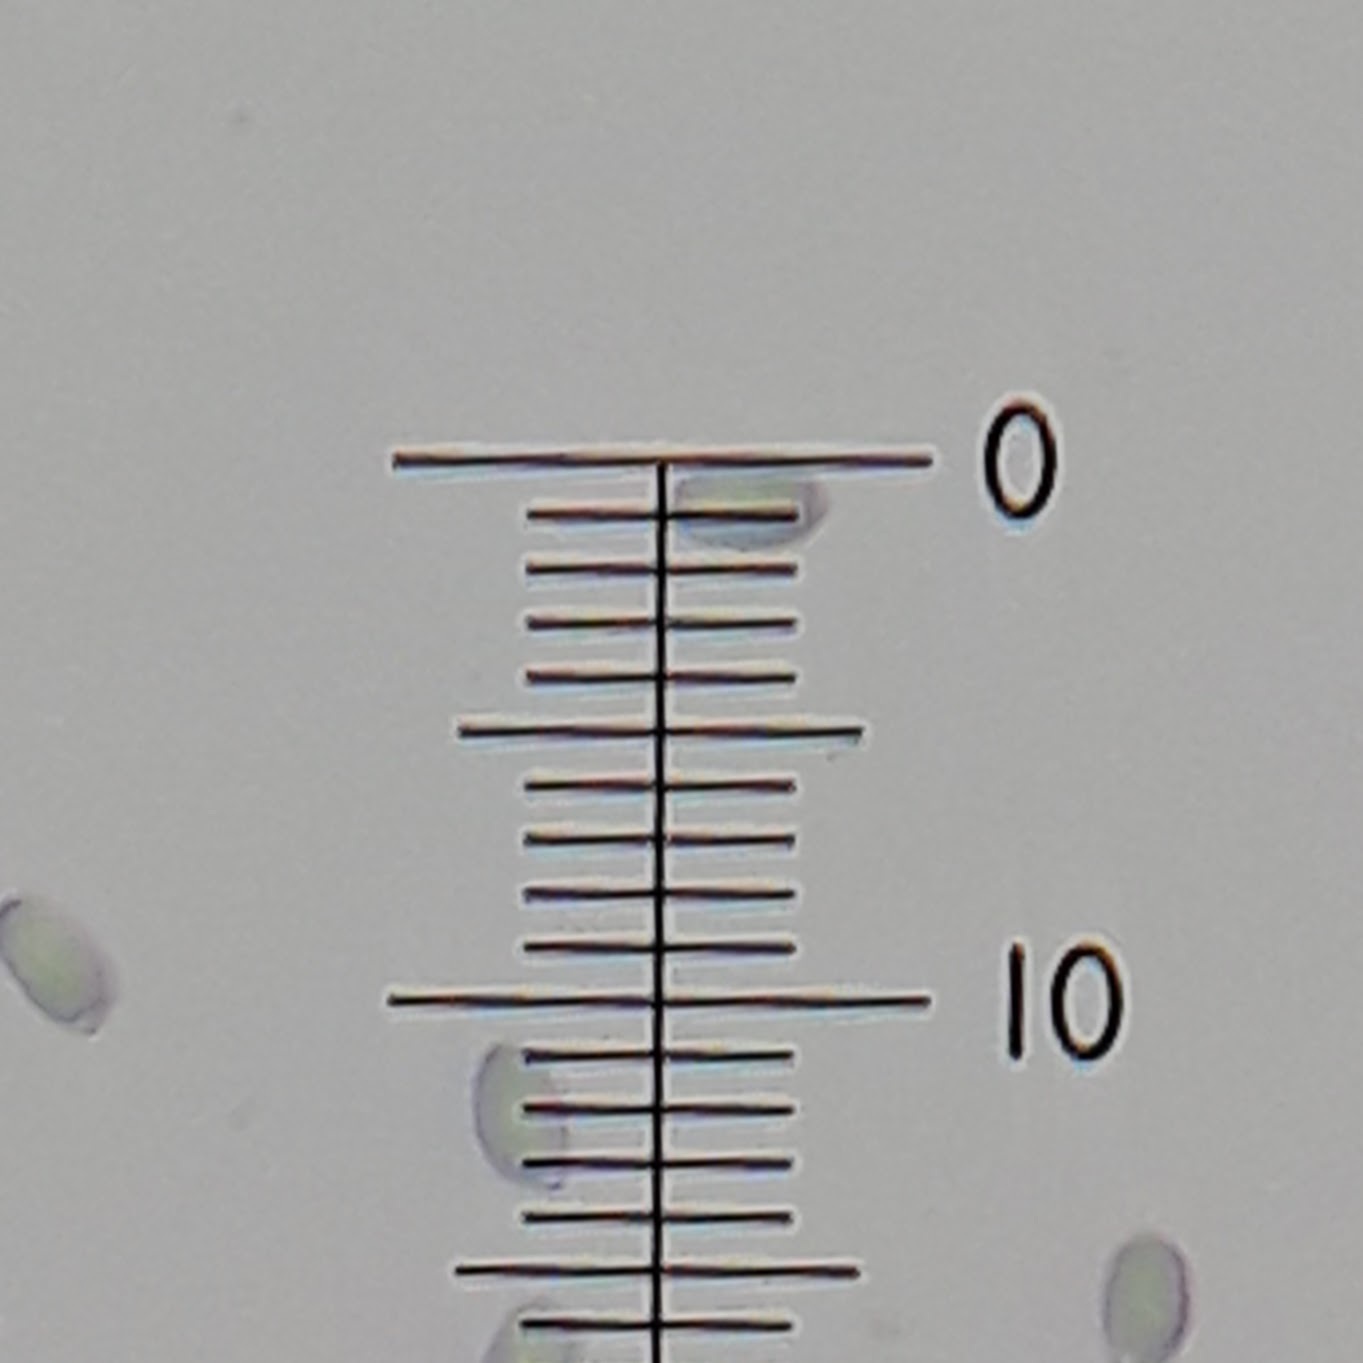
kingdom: Fungi
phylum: Basidiomycota
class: Agaricomycetes
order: Agaricales
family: Physalacriaceae
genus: Flammulina
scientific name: Flammulina velutipes
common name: Velvet shank
